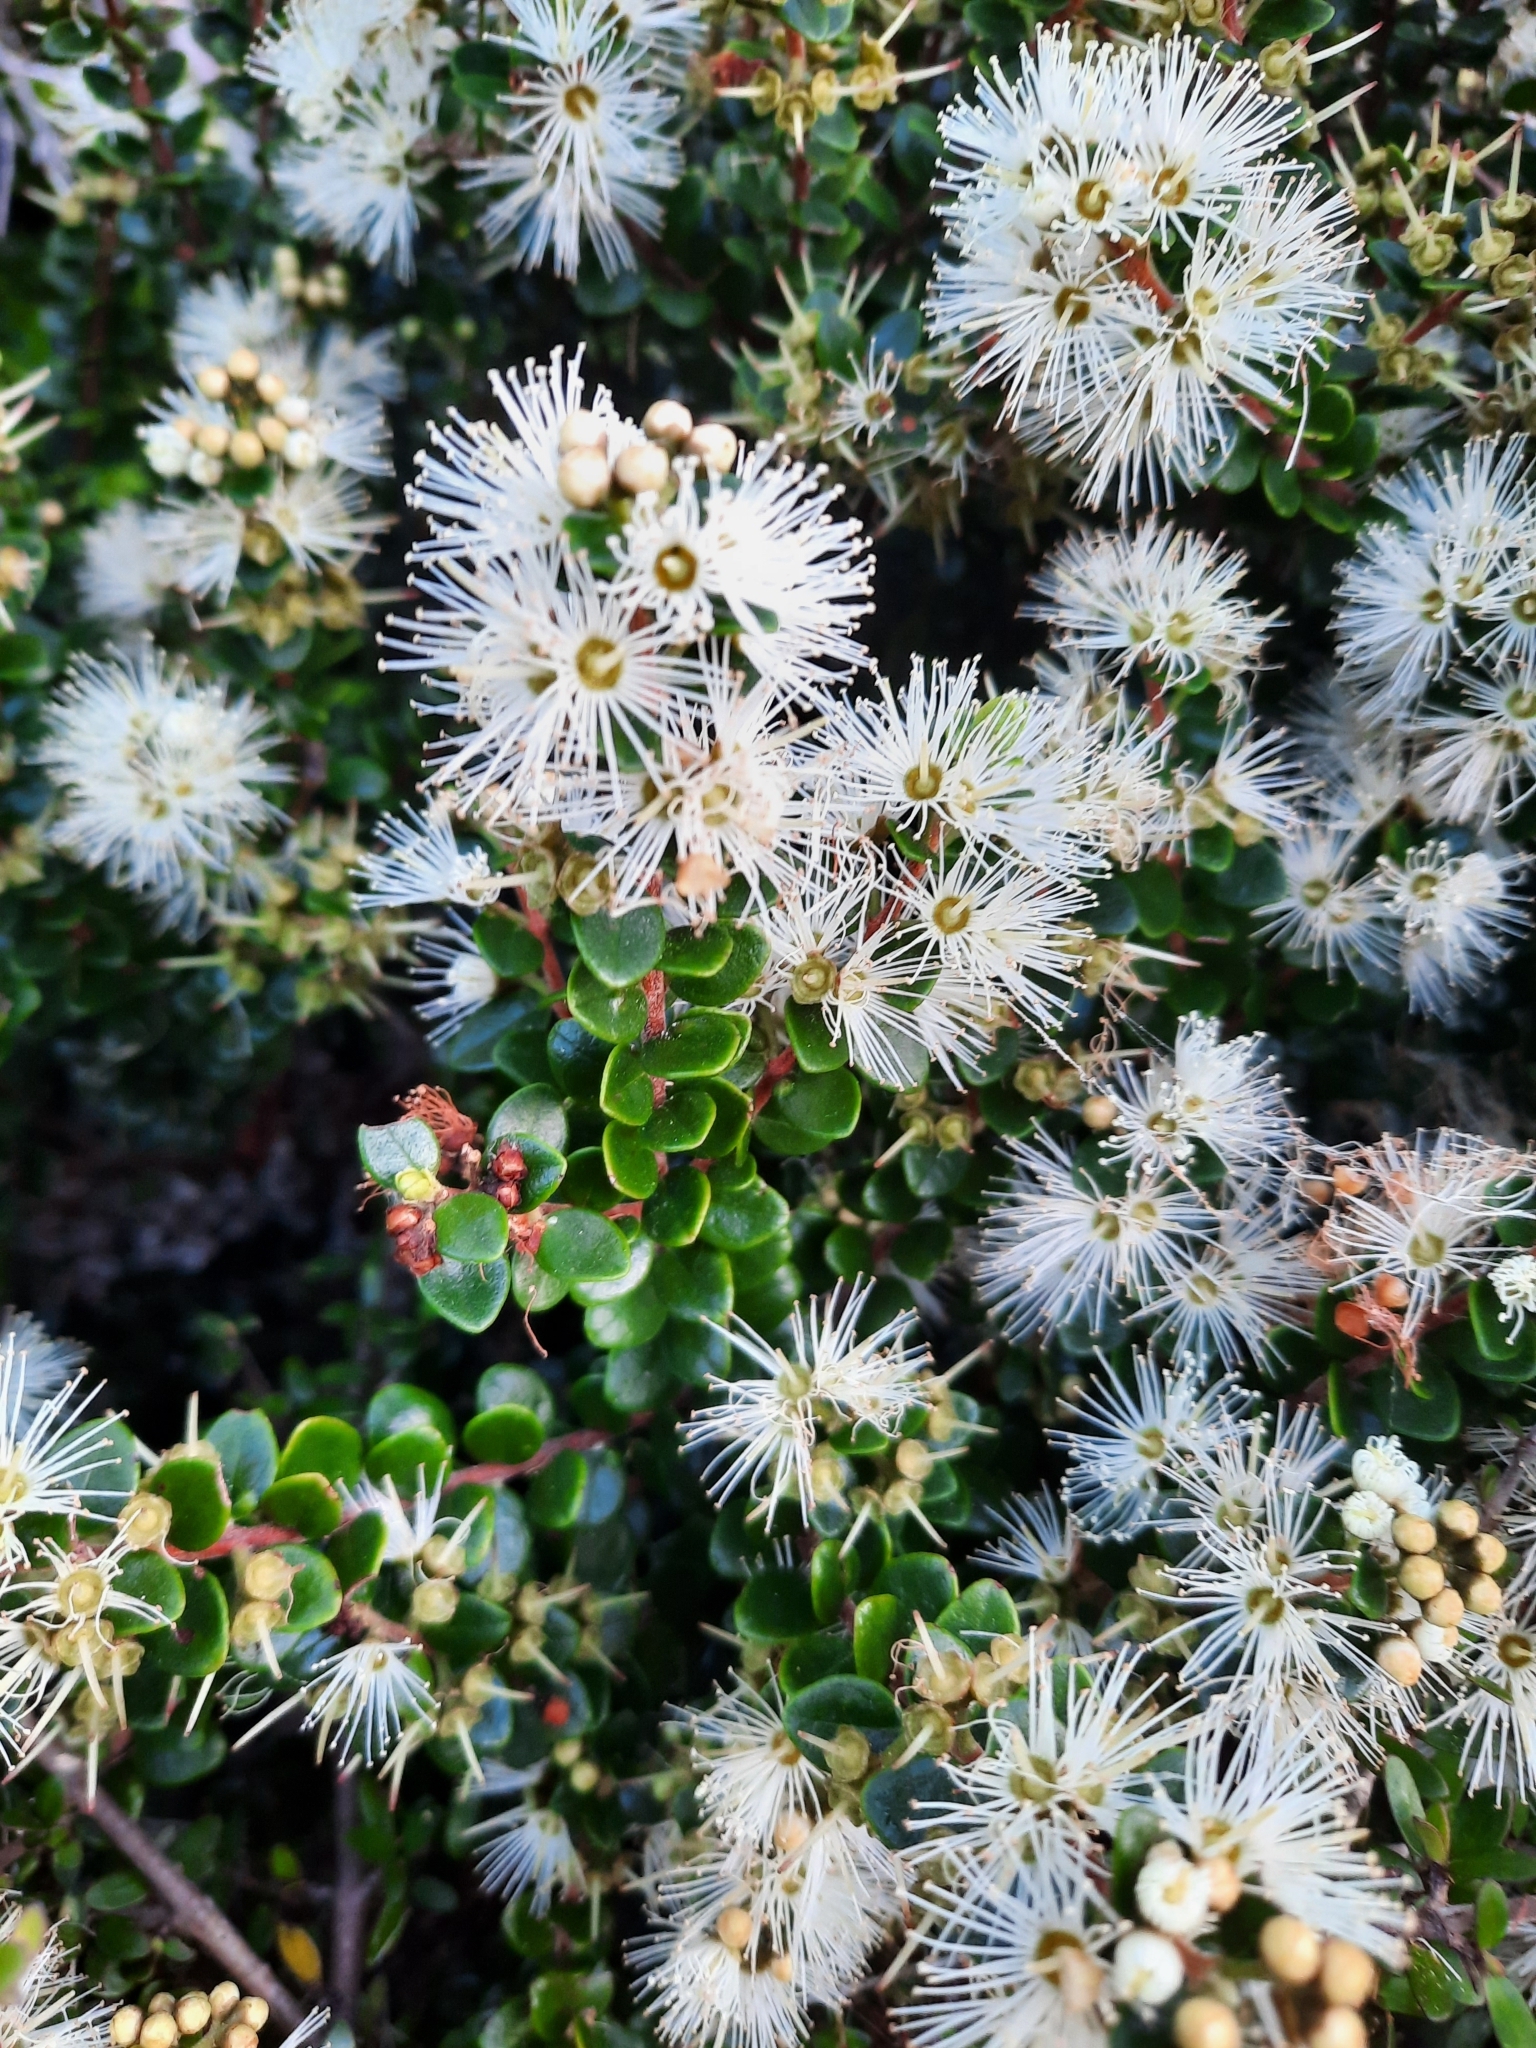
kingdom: Plantae
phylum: Tracheophyta
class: Magnoliopsida
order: Myrtales
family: Myrtaceae
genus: Metrosideros
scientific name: Metrosideros perforata
